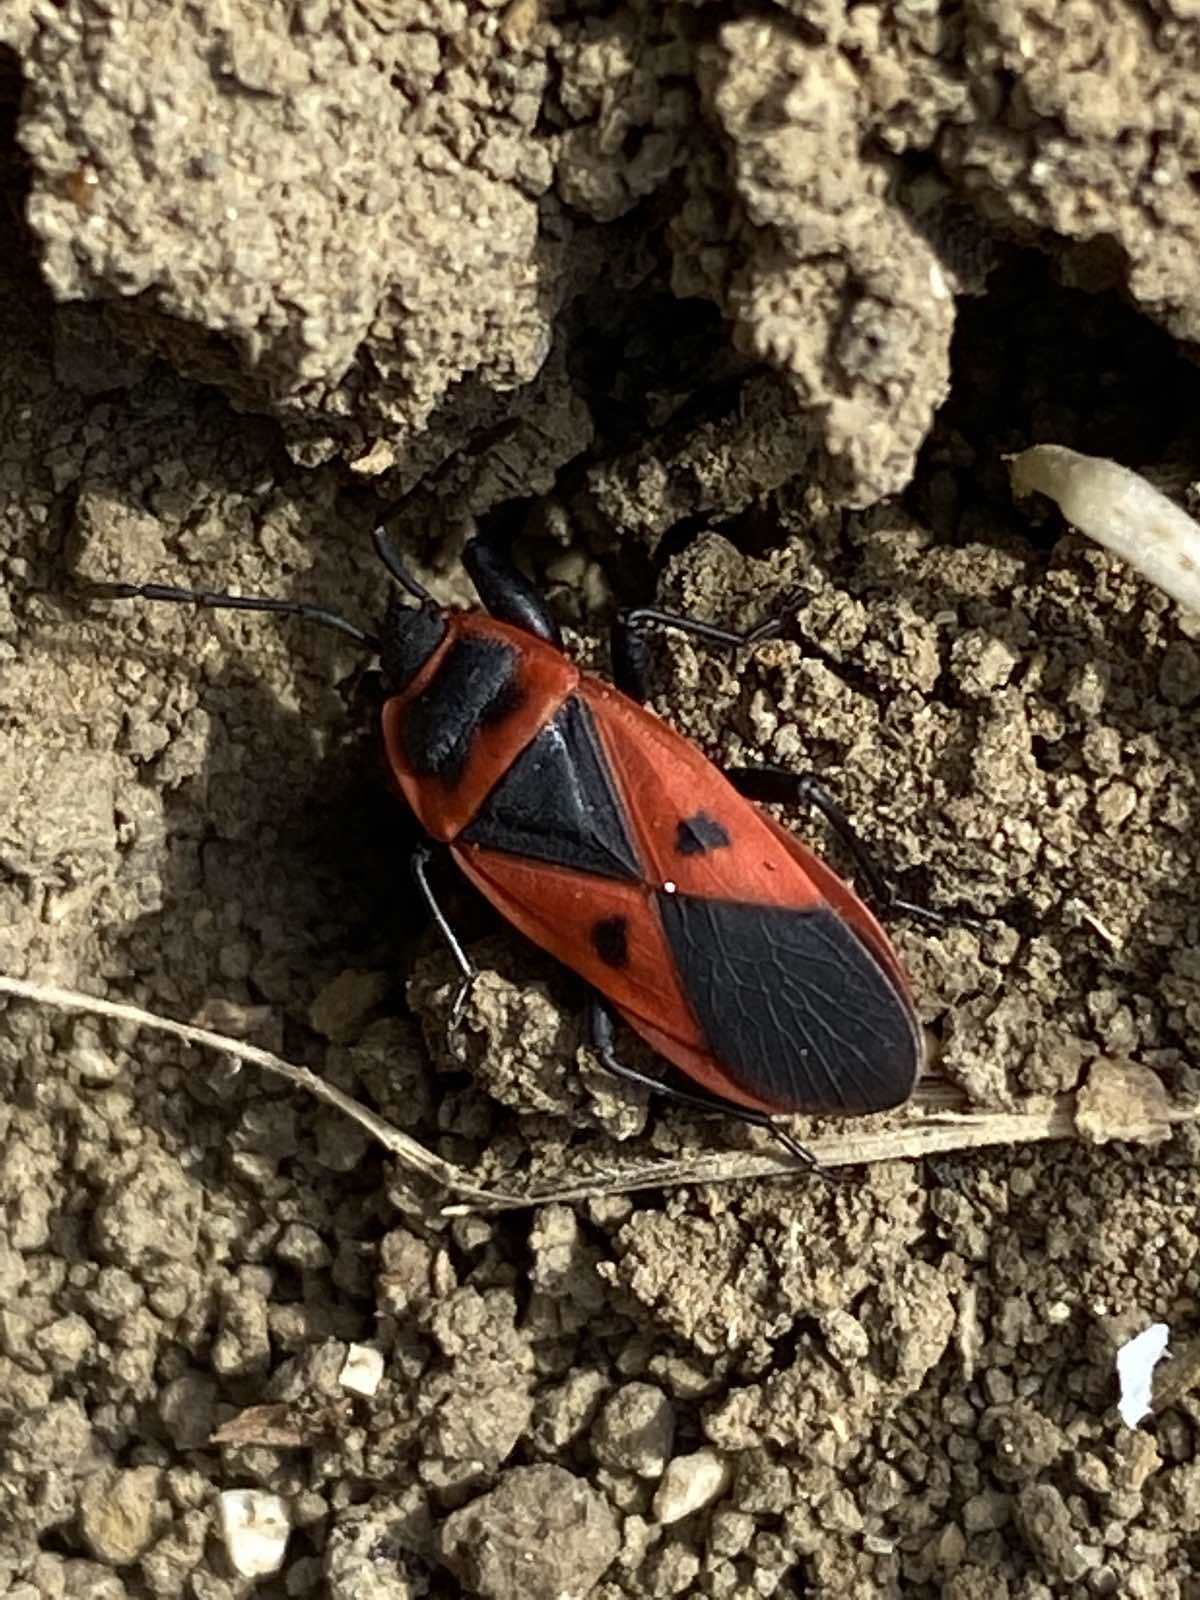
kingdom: Animalia
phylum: Arthropoda
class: Insecta
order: Hemiptera
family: Pyrrhocoridae
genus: Scantius
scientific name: Scantius aegyptius
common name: Red bug
